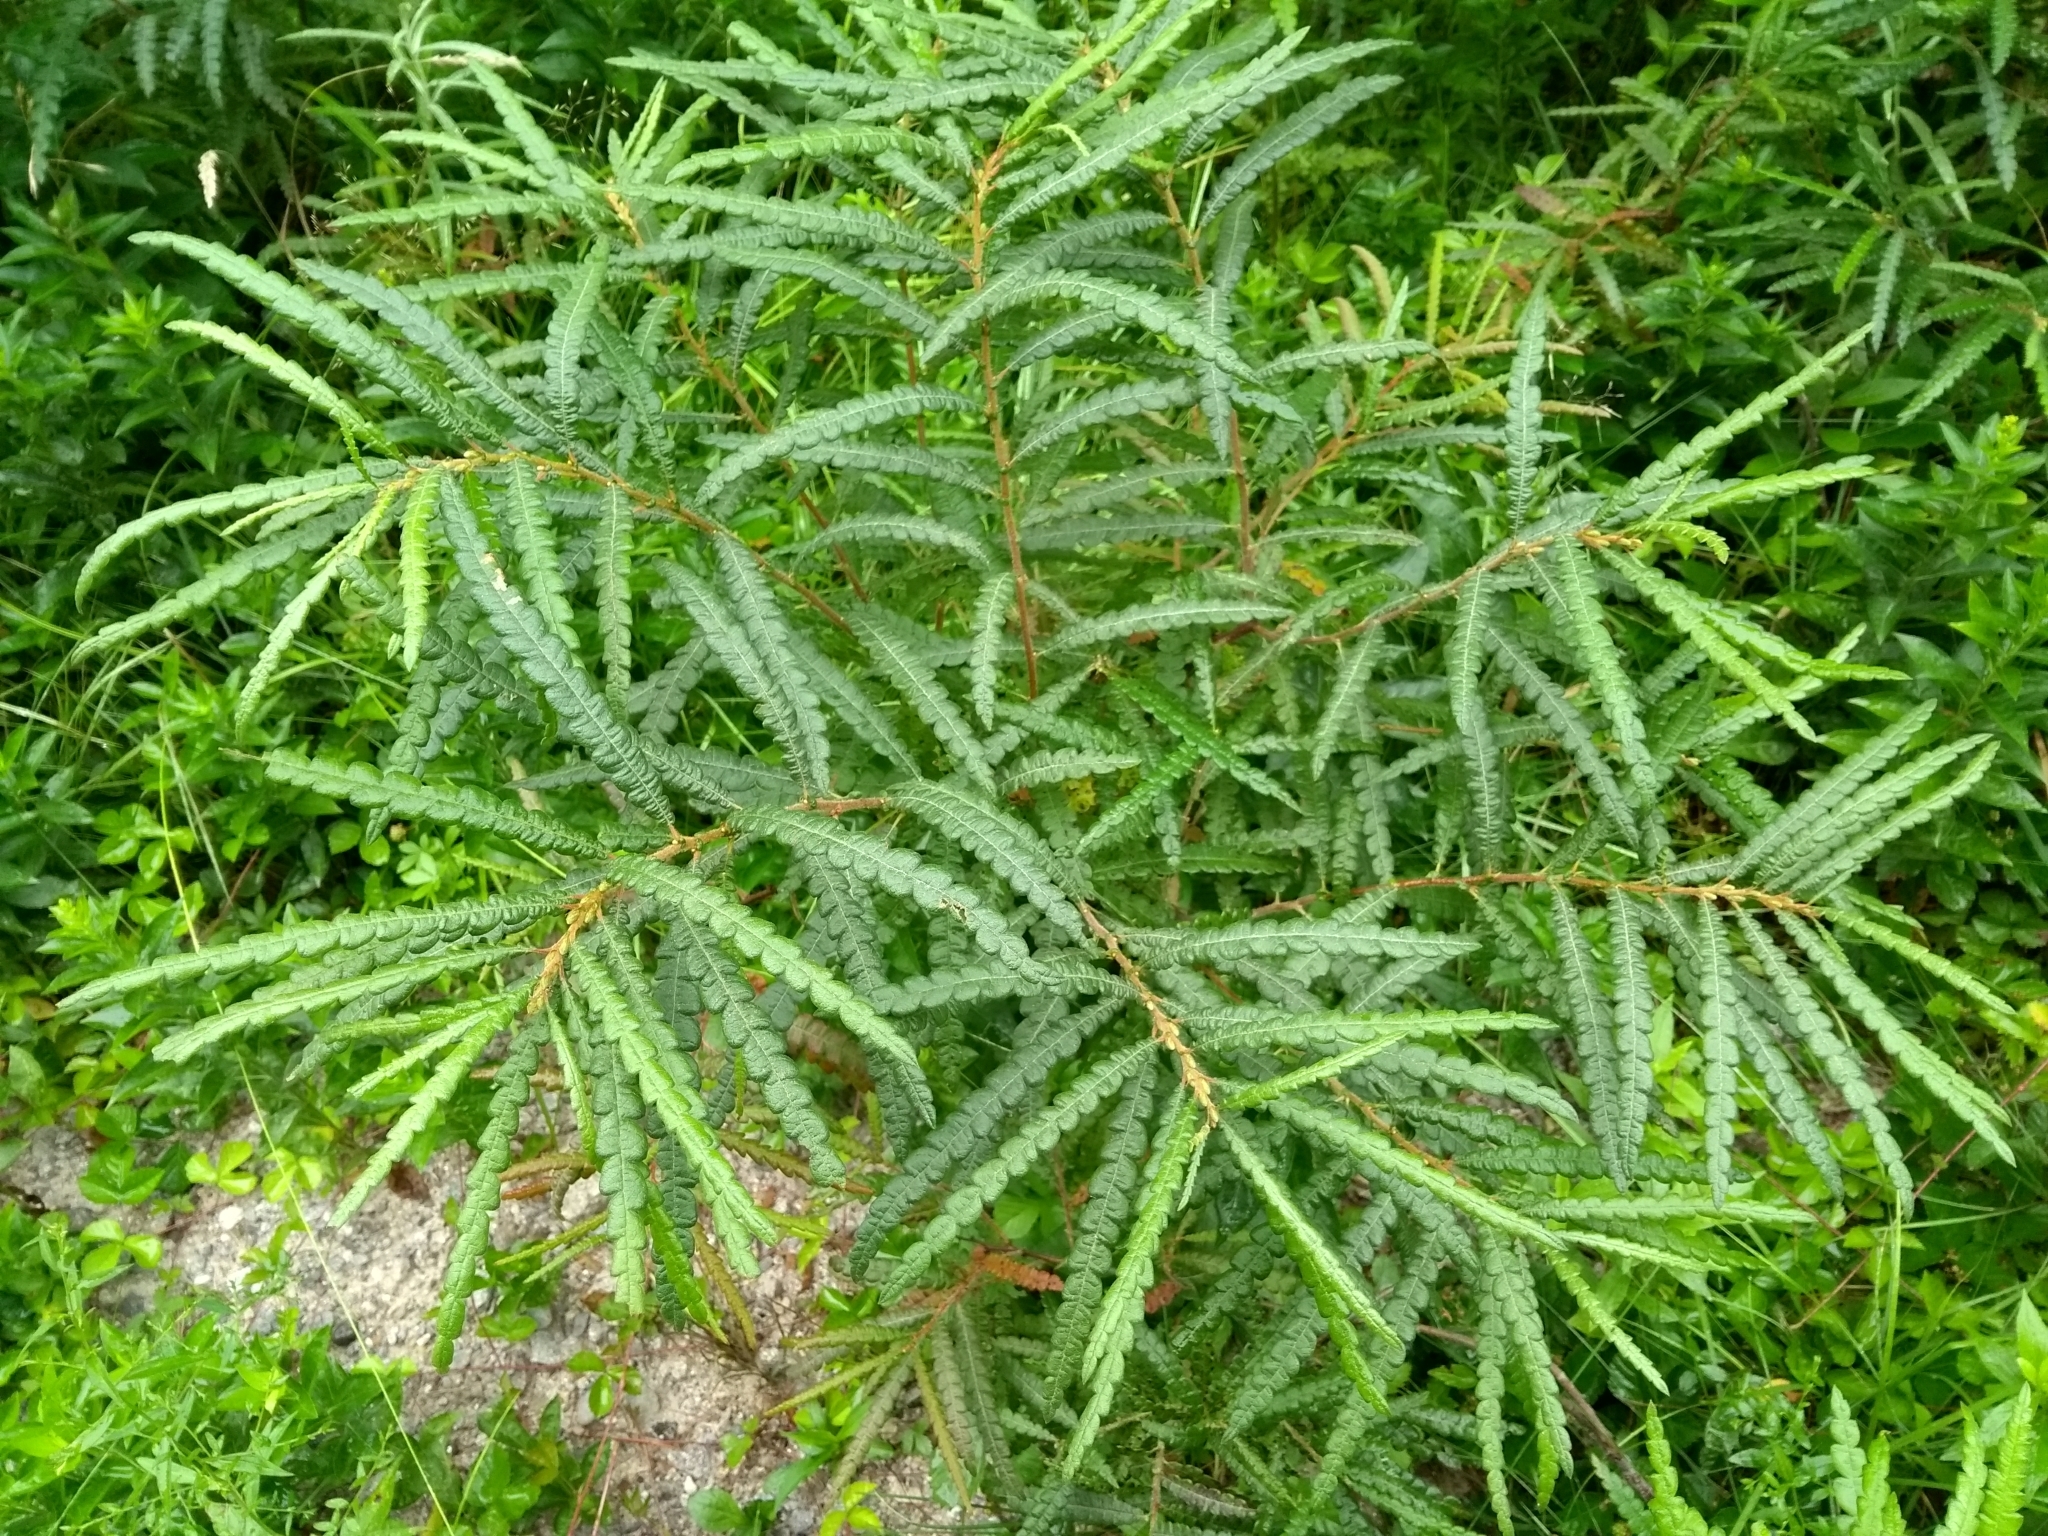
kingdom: Plantae
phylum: Tracheophyta
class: Magnoliopsida
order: Fagales
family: Myricaceae
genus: Comptonia
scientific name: Comptonia peregrina
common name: Sweet-fern
